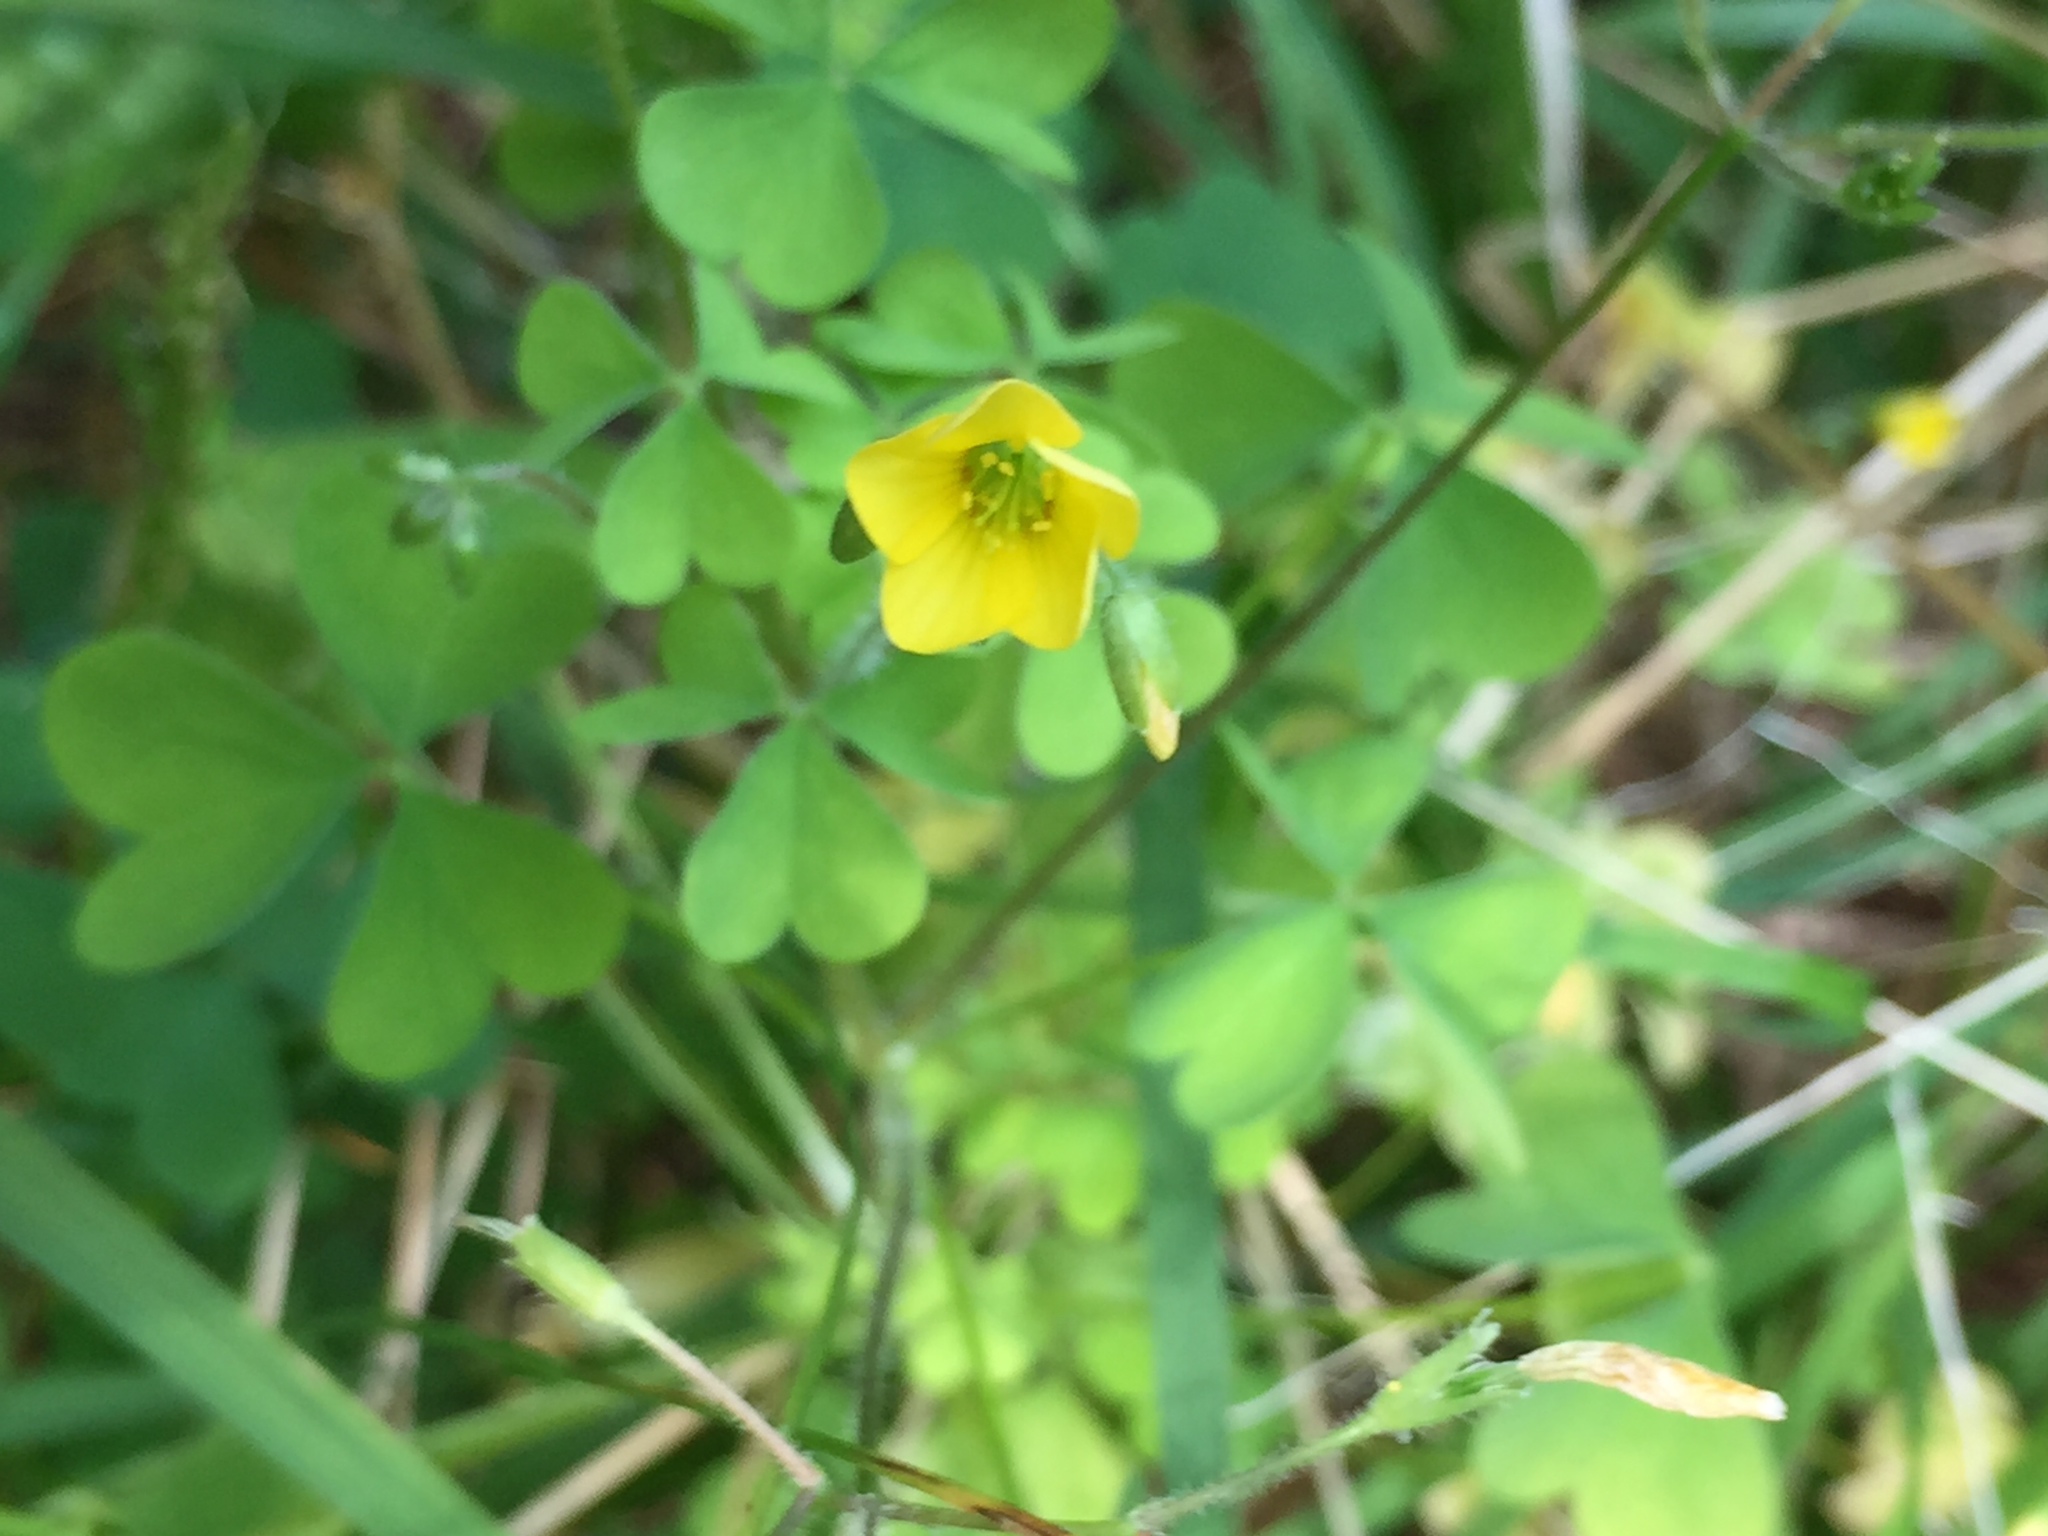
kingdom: Plantae
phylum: Tracheophyta
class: Magnoliopsida
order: Oxalidales
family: Oxalidaceae
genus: Oxalis
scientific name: Oxalis
